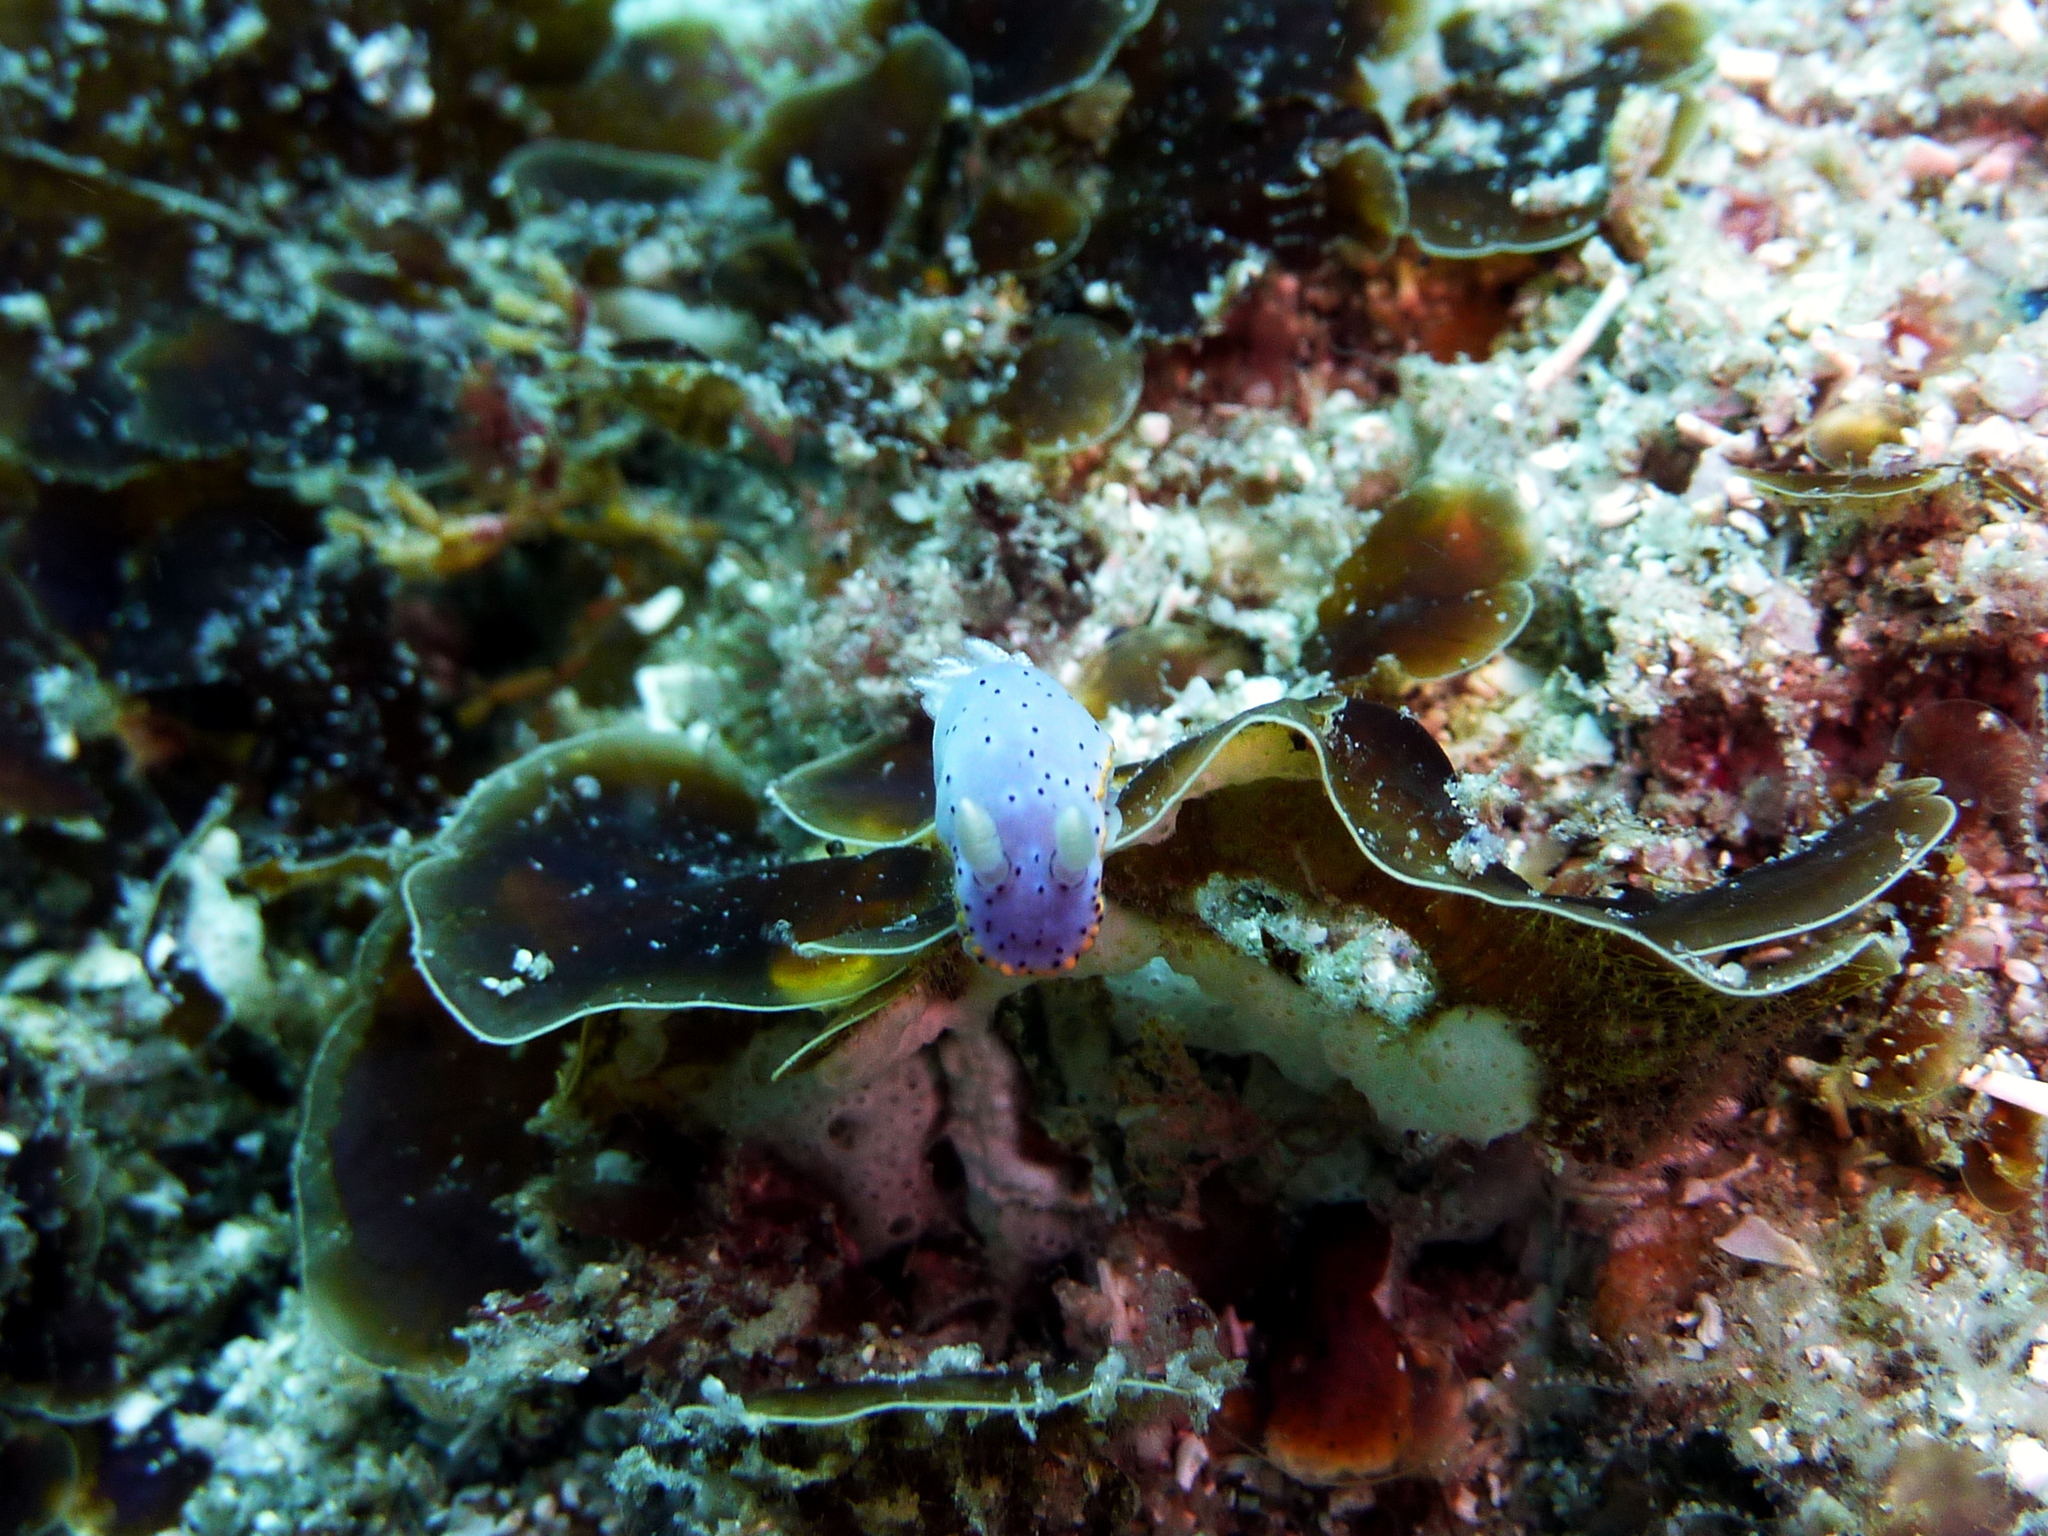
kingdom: Animalia
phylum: Mollusca
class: Gastropoda
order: Nudibranchia
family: Chromodorididae
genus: Goniobranchus
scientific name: Goniobranchus woodwardae
